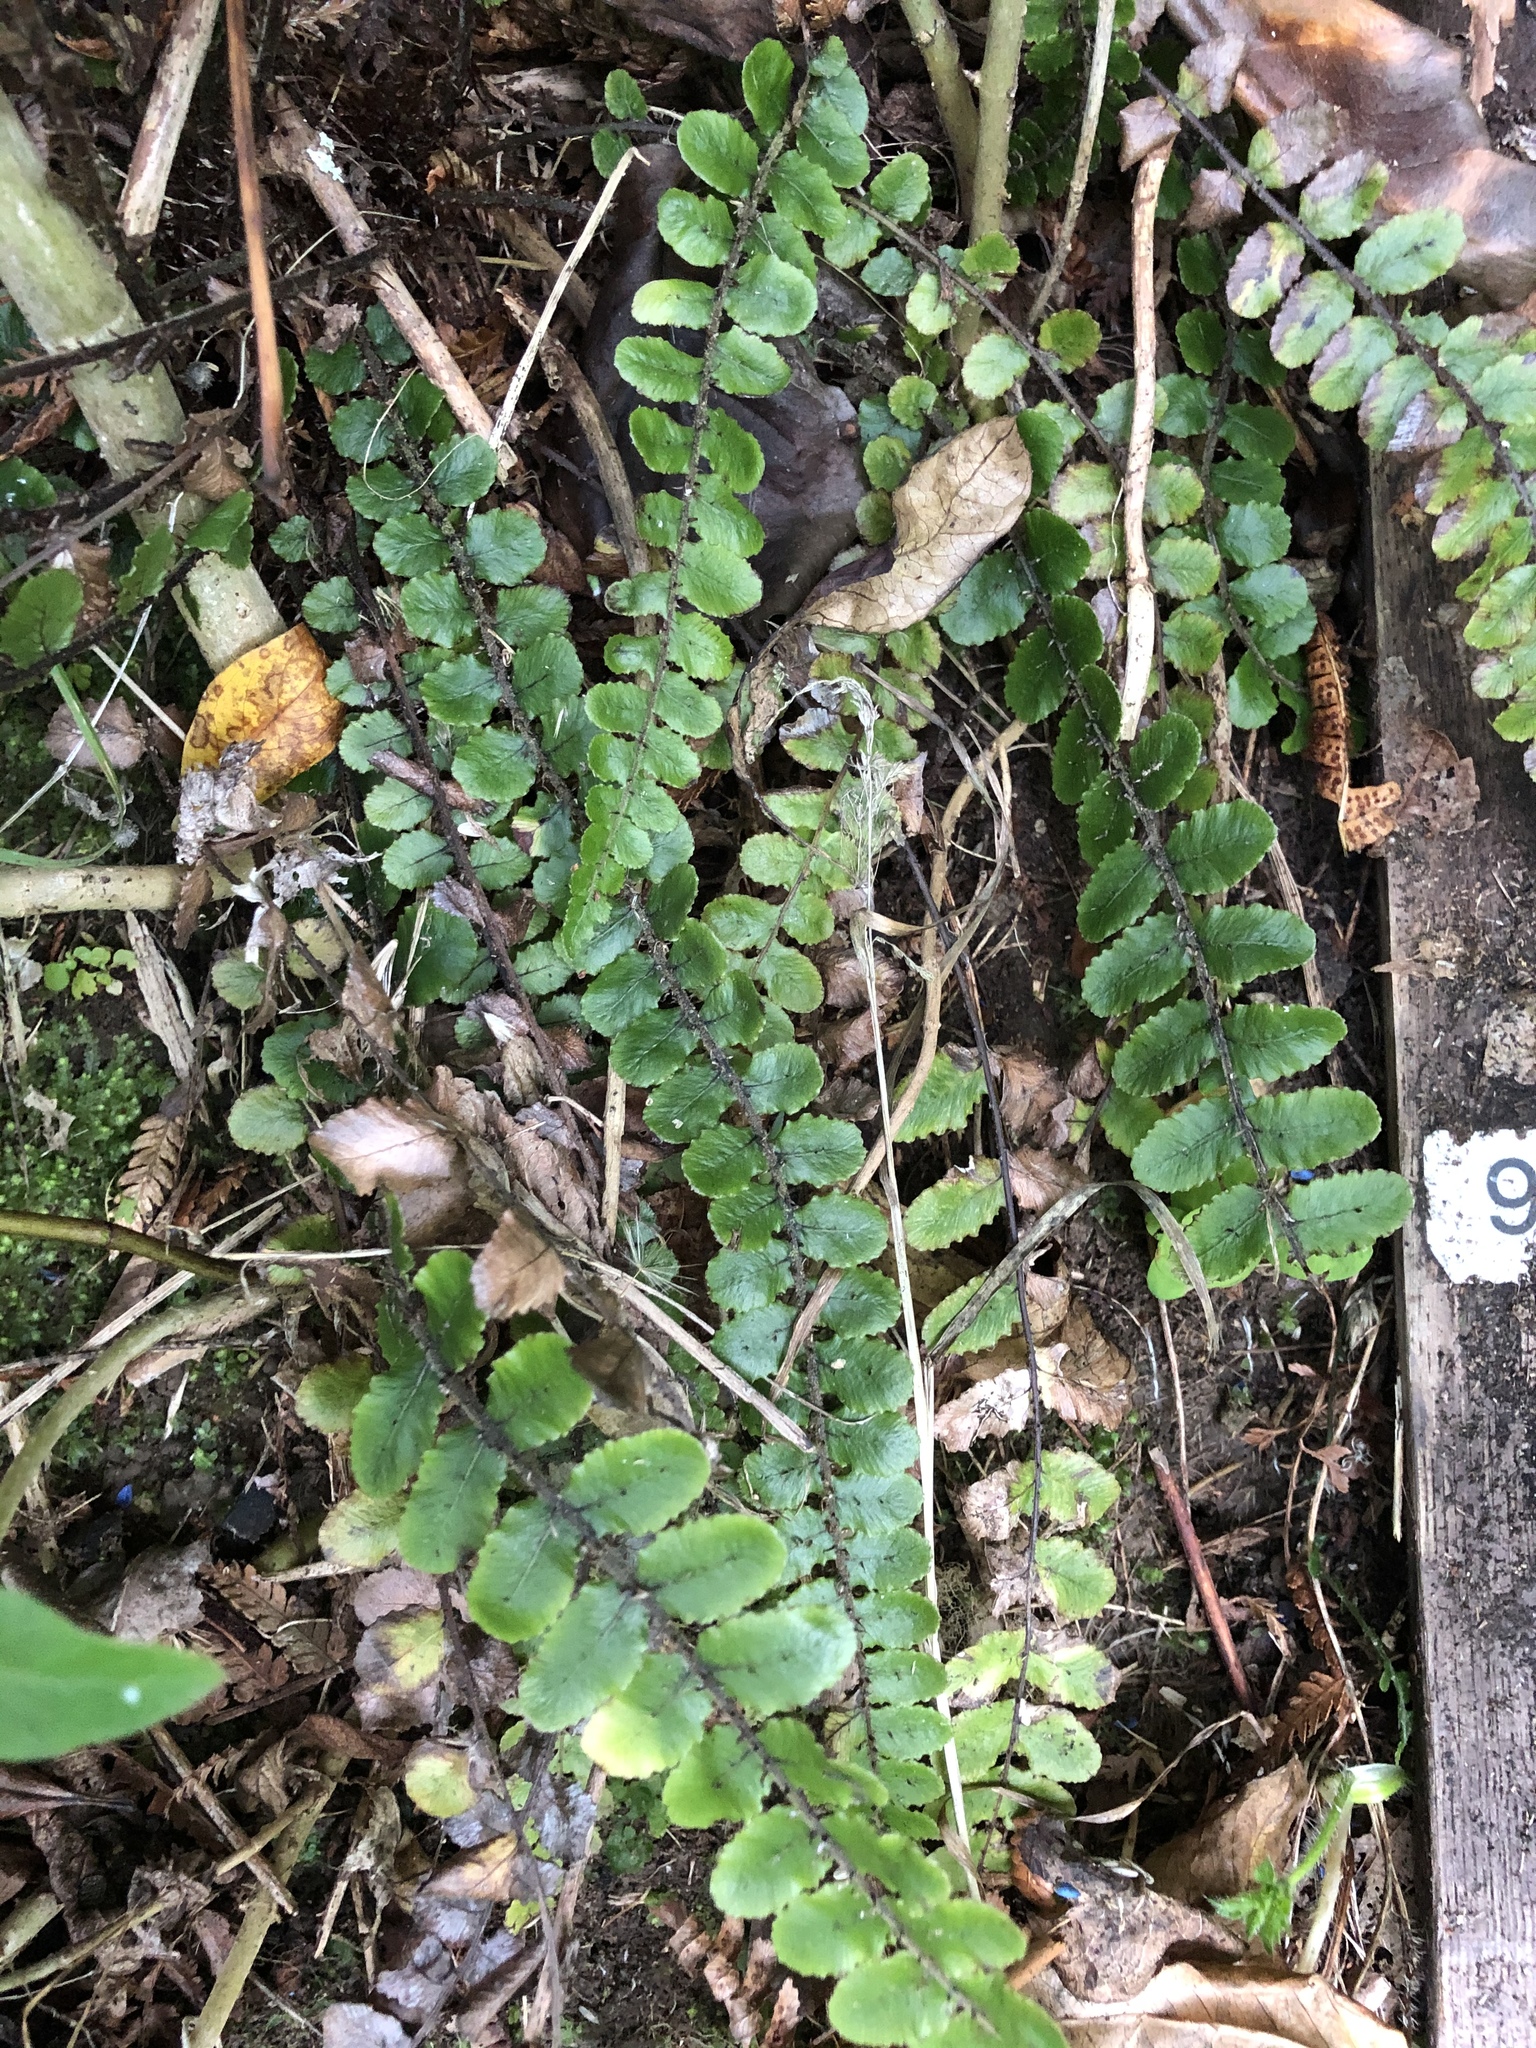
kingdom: Plantae
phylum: Tracheophyta
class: Polypodiopsida
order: Polypodiales
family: Blechnaceae
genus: Cranfillia
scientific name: Cranfillia fluviatilis
